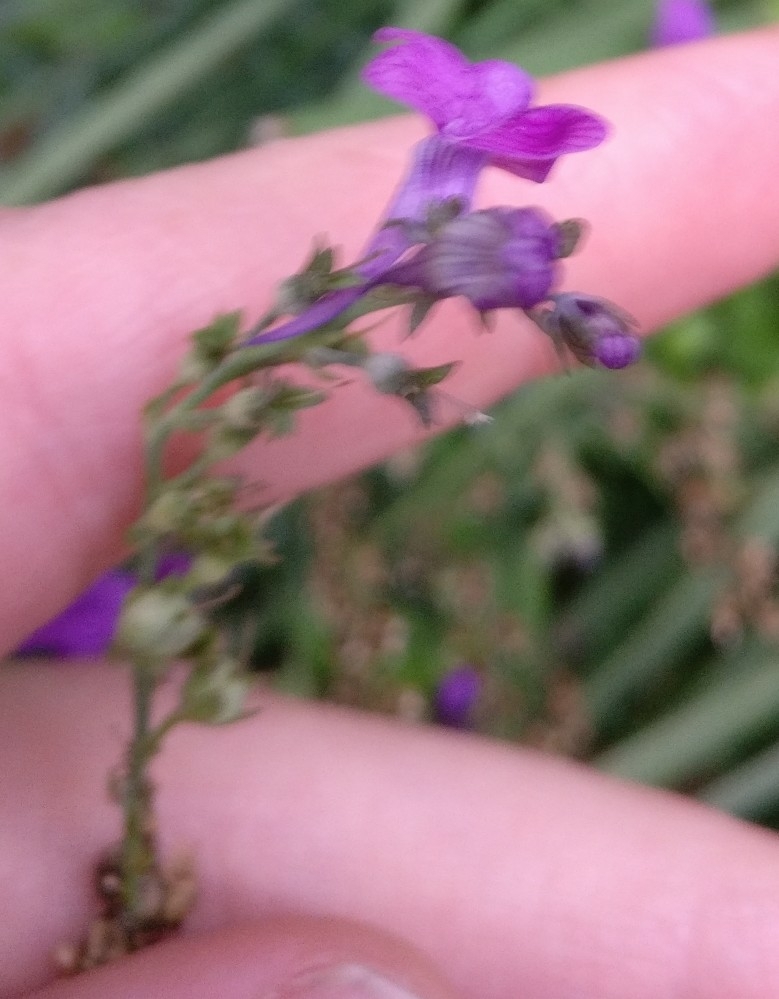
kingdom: Plantae
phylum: Tracheophyta
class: Magnoliopsida
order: Lamiales
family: Plantaginaceae
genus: Linaria
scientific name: Linaria purpurea
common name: Purple toadflax
